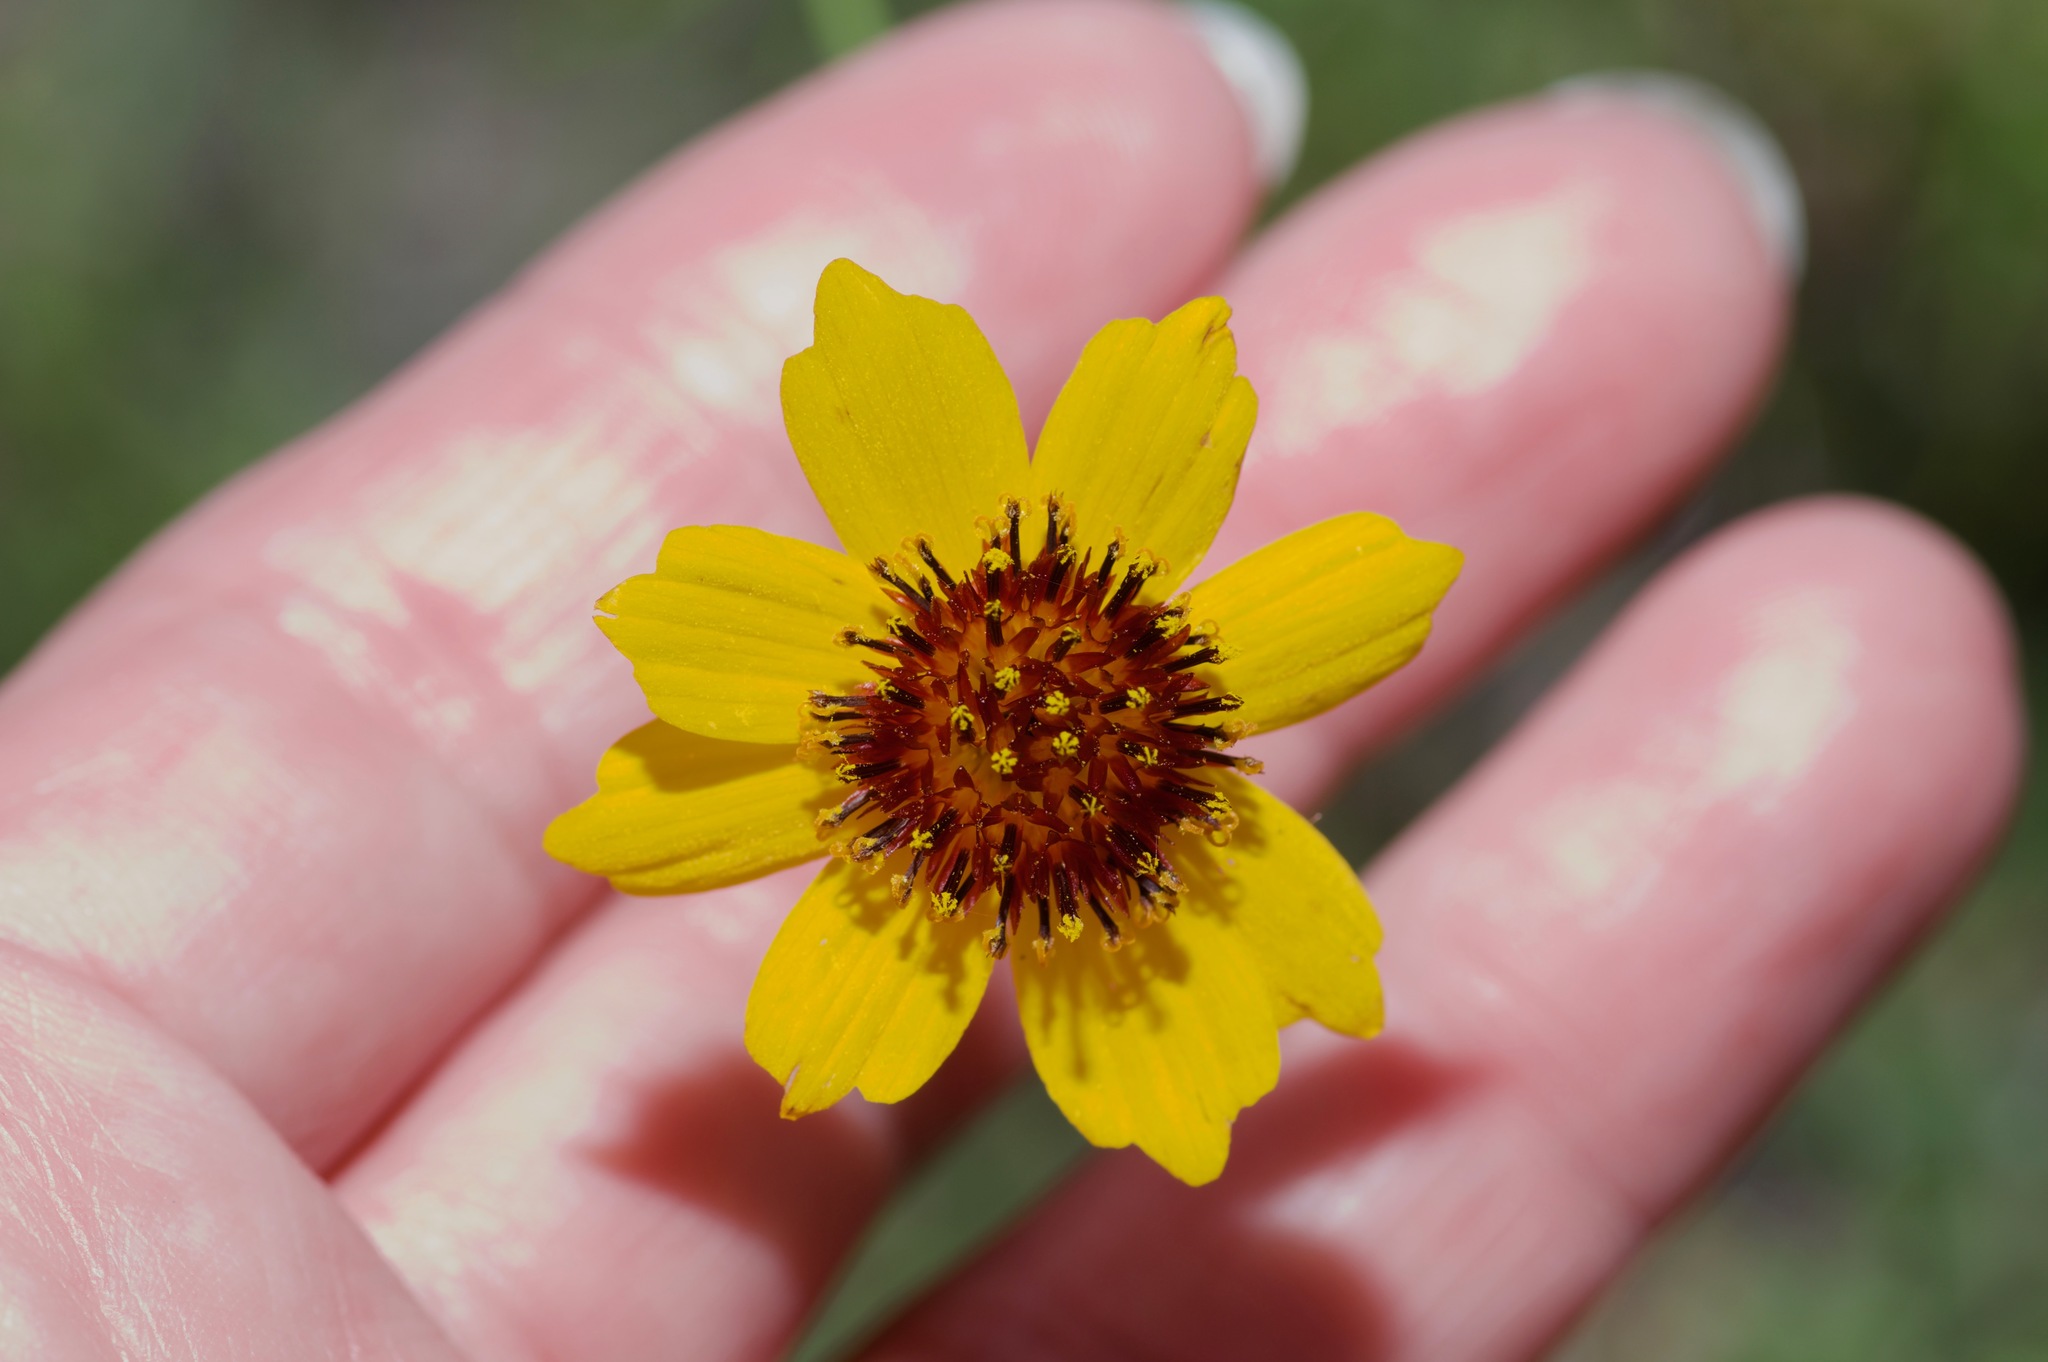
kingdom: Plantae
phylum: Tracheophyta
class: Magnoliopsida
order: Asterales
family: Asteraceae
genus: Thelesperma
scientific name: Thelesperma filifolium
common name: Stiff greenthread
